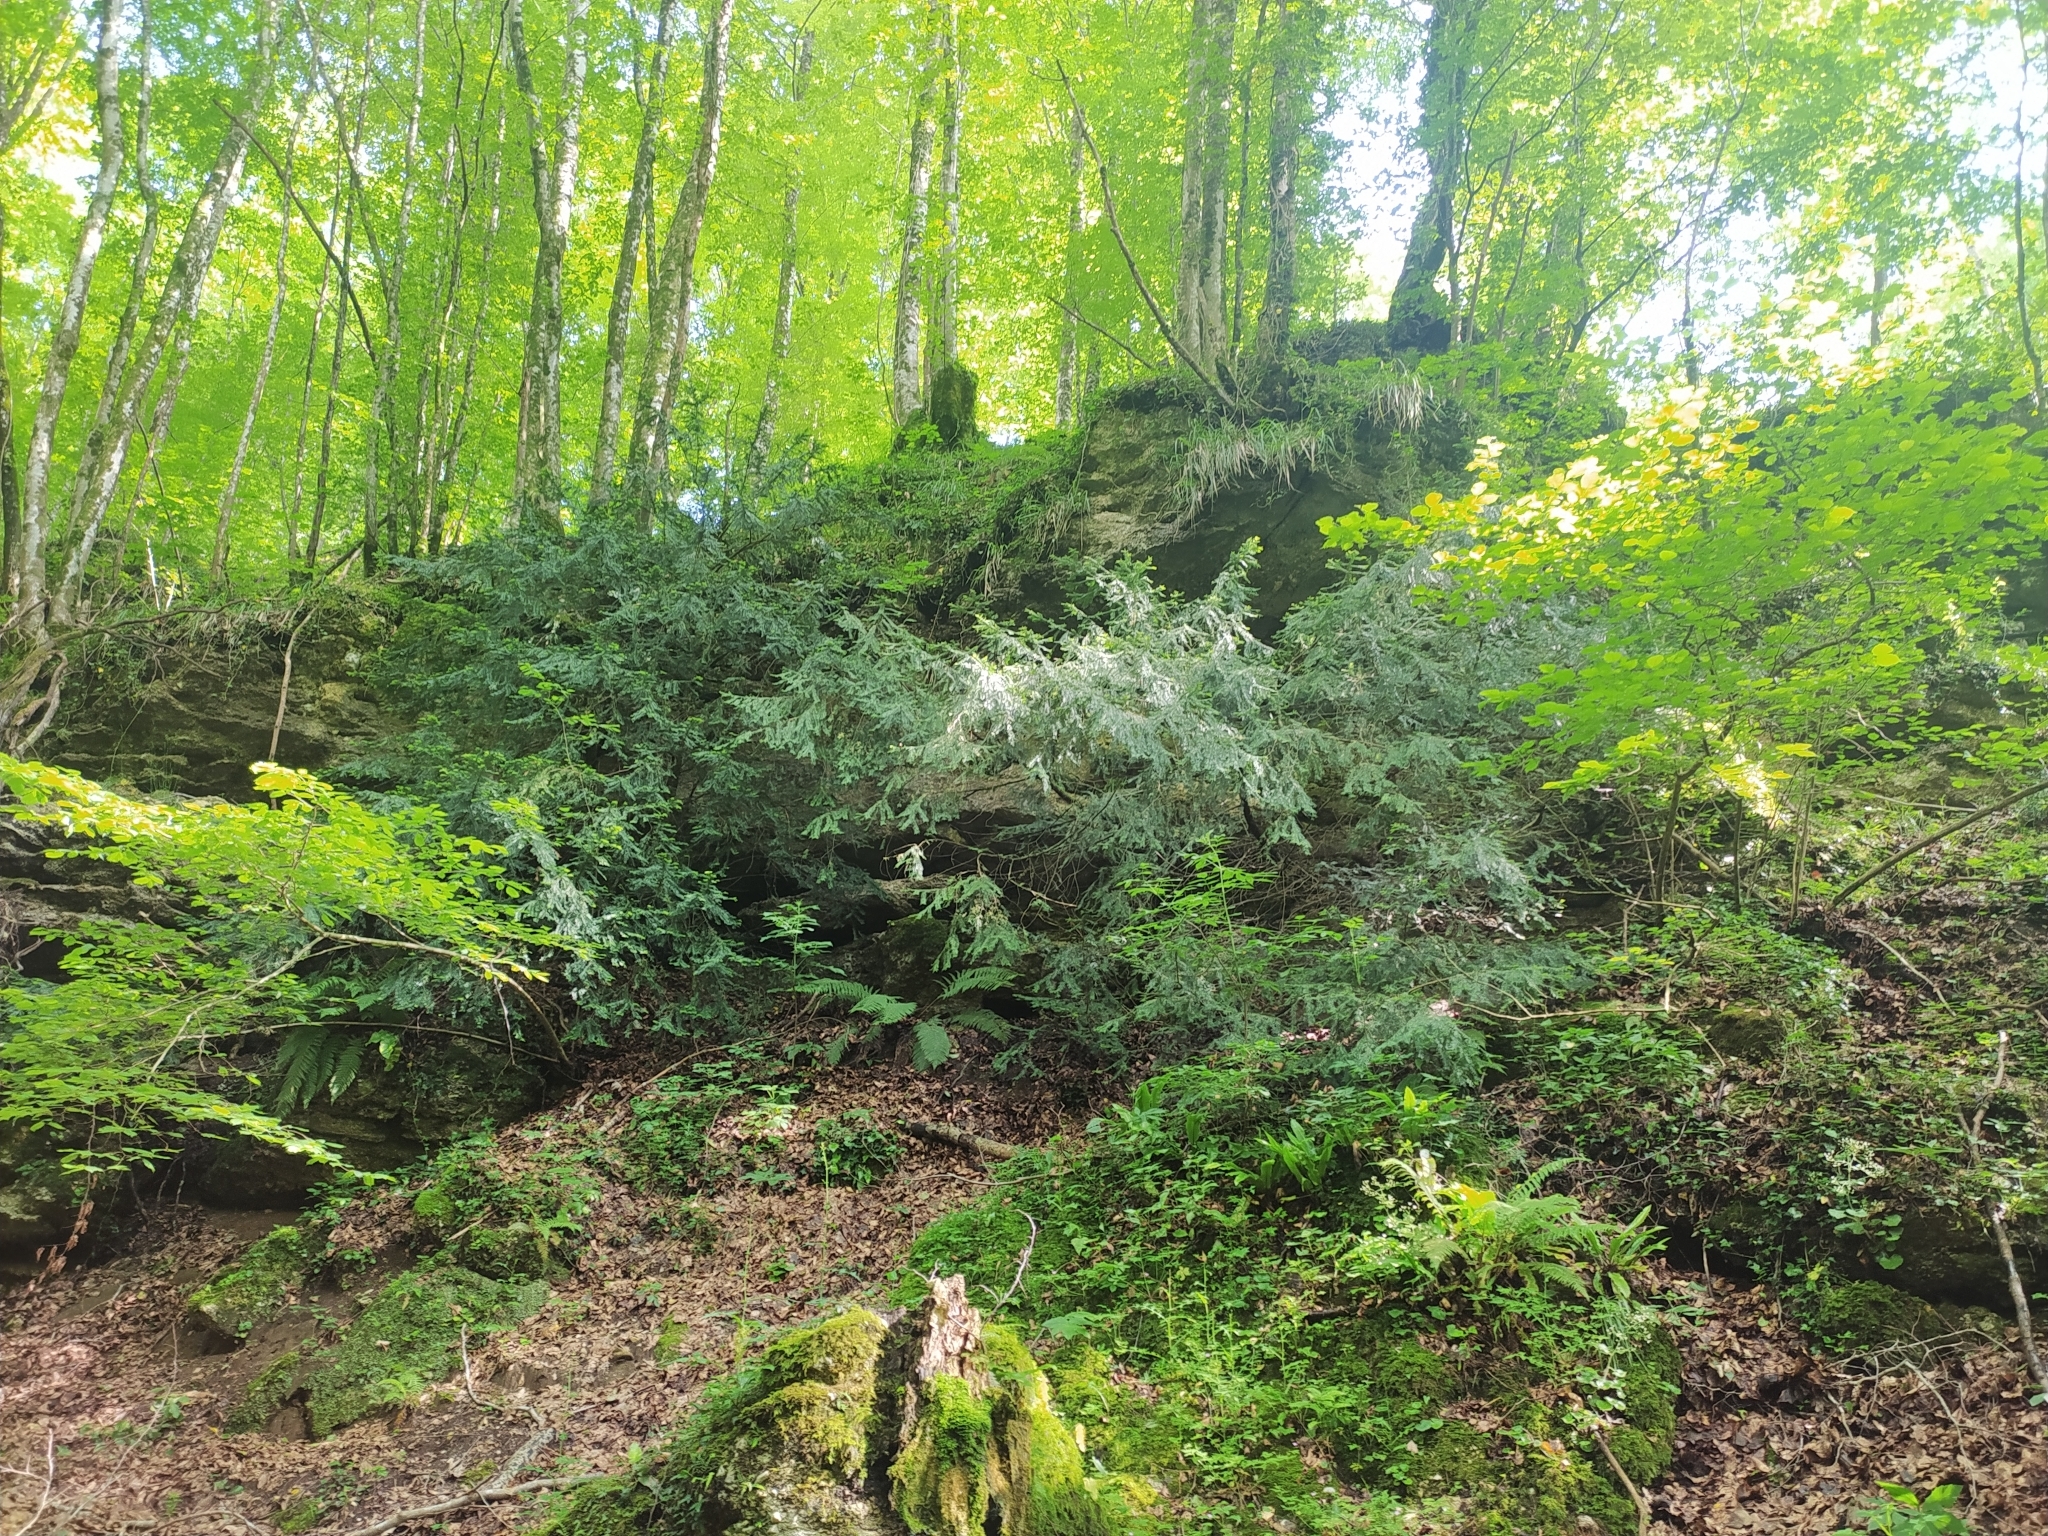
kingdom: Plantae
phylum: Tracheophyta
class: Pinopsida
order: Pinales
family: Taxaceae
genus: Taxus
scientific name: Taxus baccata
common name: Yew
